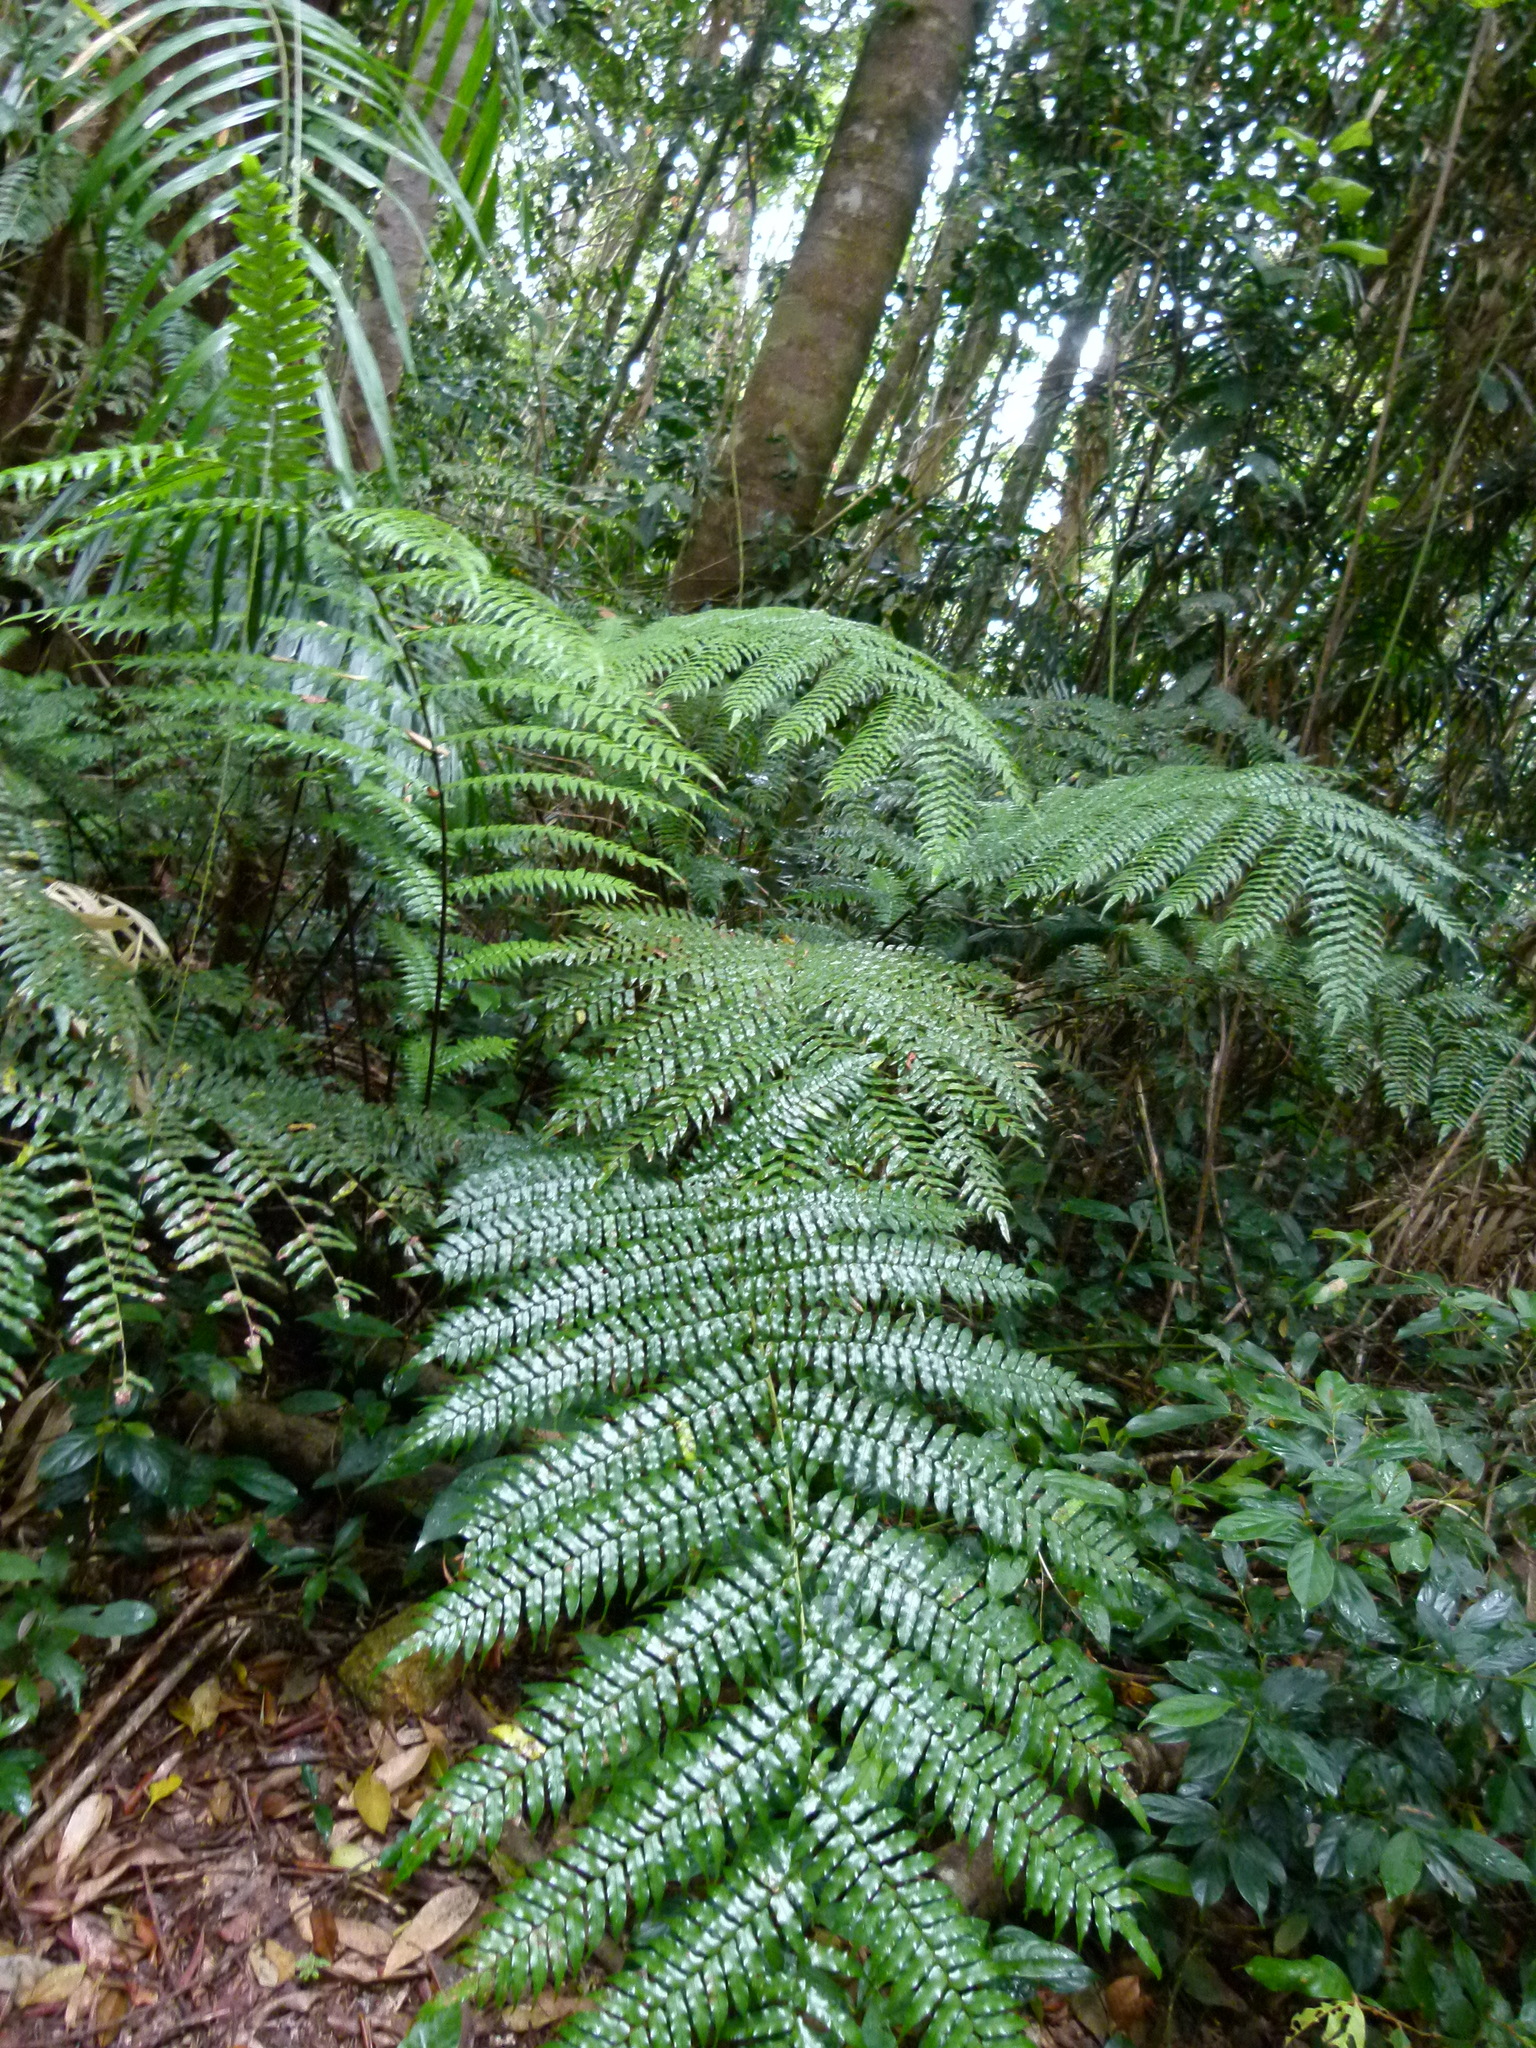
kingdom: Plantae
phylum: Tracheophyta
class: Polypodiopsida
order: Cyatheales
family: Cyatheaceae
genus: Gymnosphaera
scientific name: Gymnosphaera rebeccae
